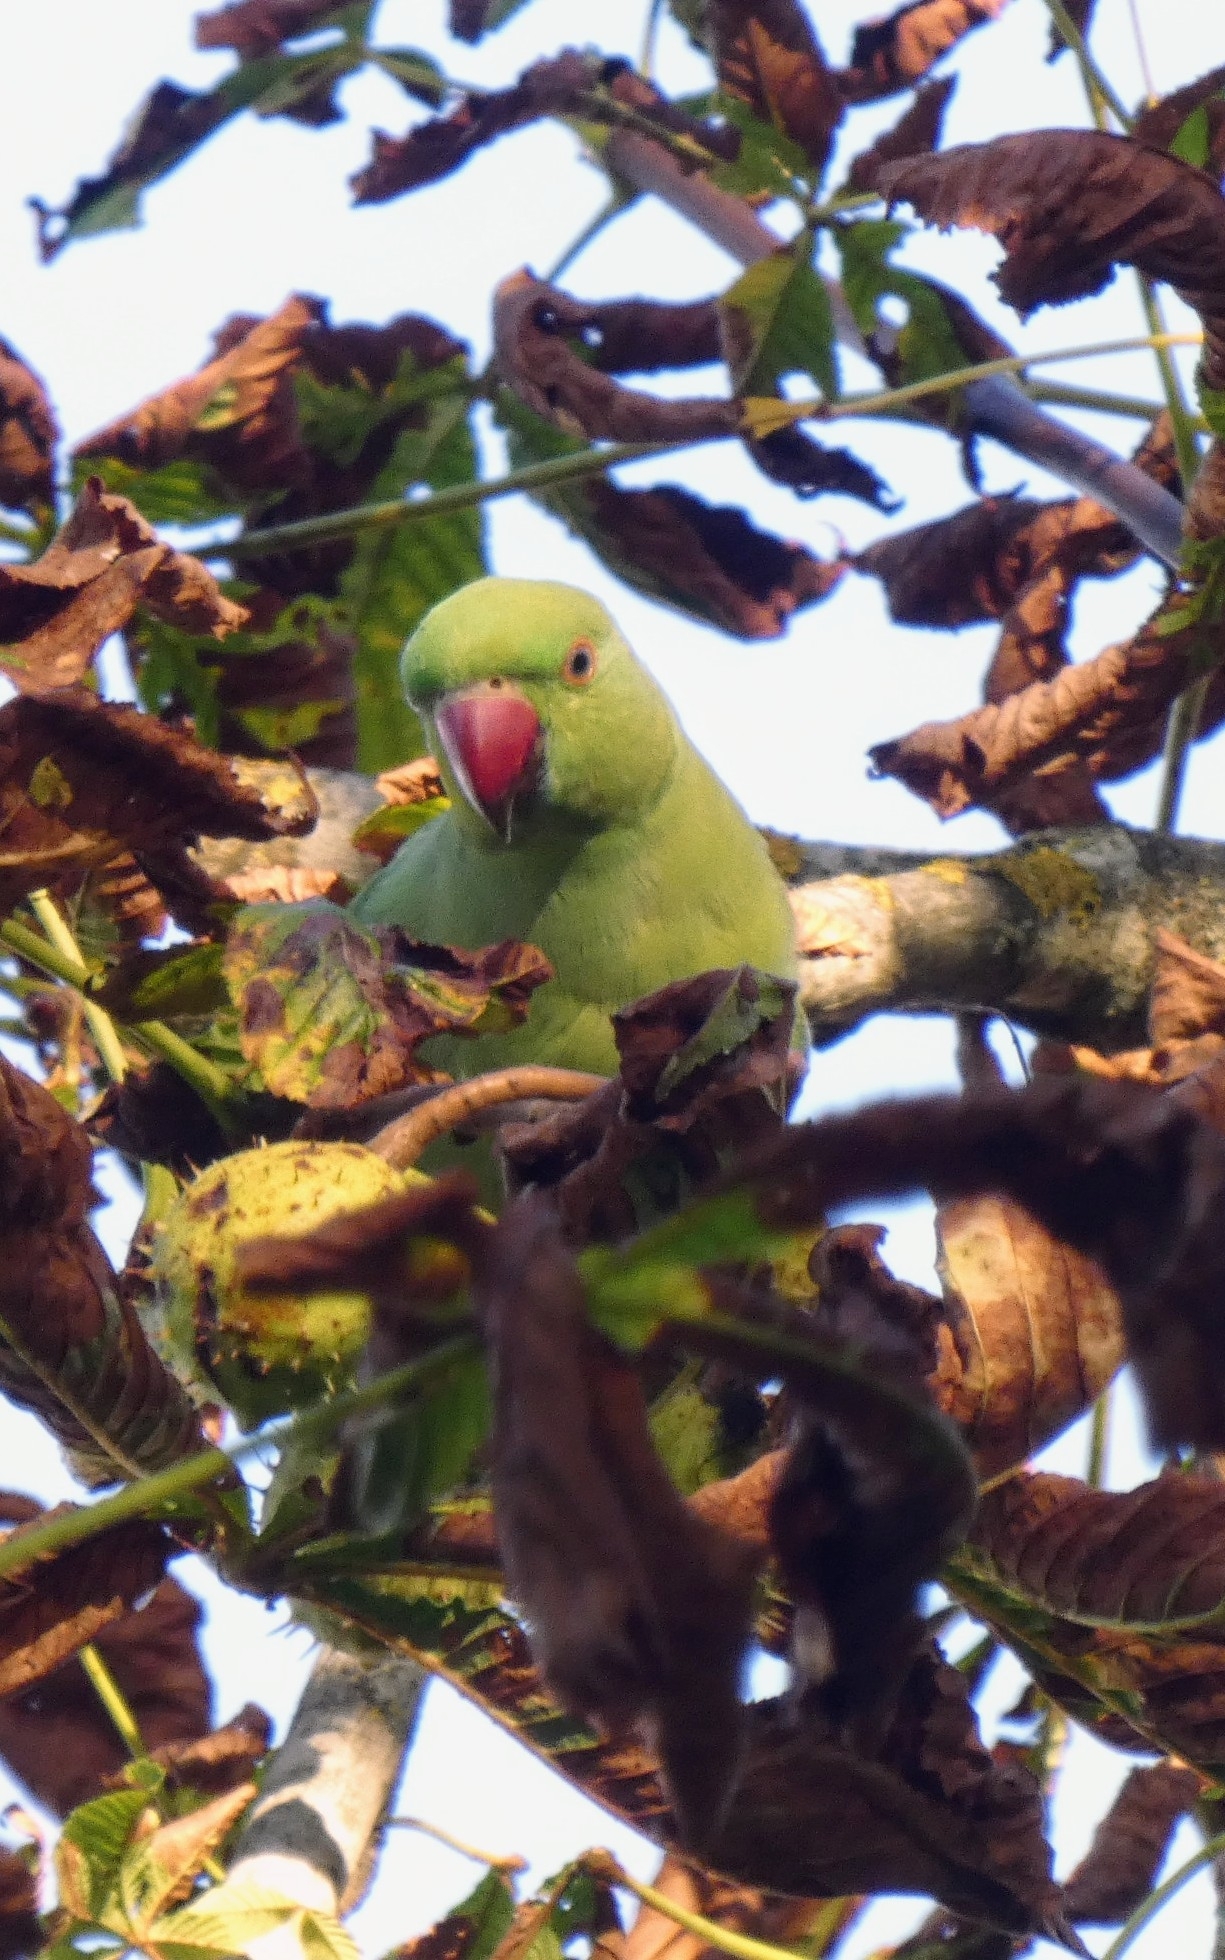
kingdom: Animalia
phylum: Chordata
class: Aves
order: Psittaciformes
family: Psittacidae
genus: Psittacula
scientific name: Psittacula krameri
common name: Rose-ringed parakeet
